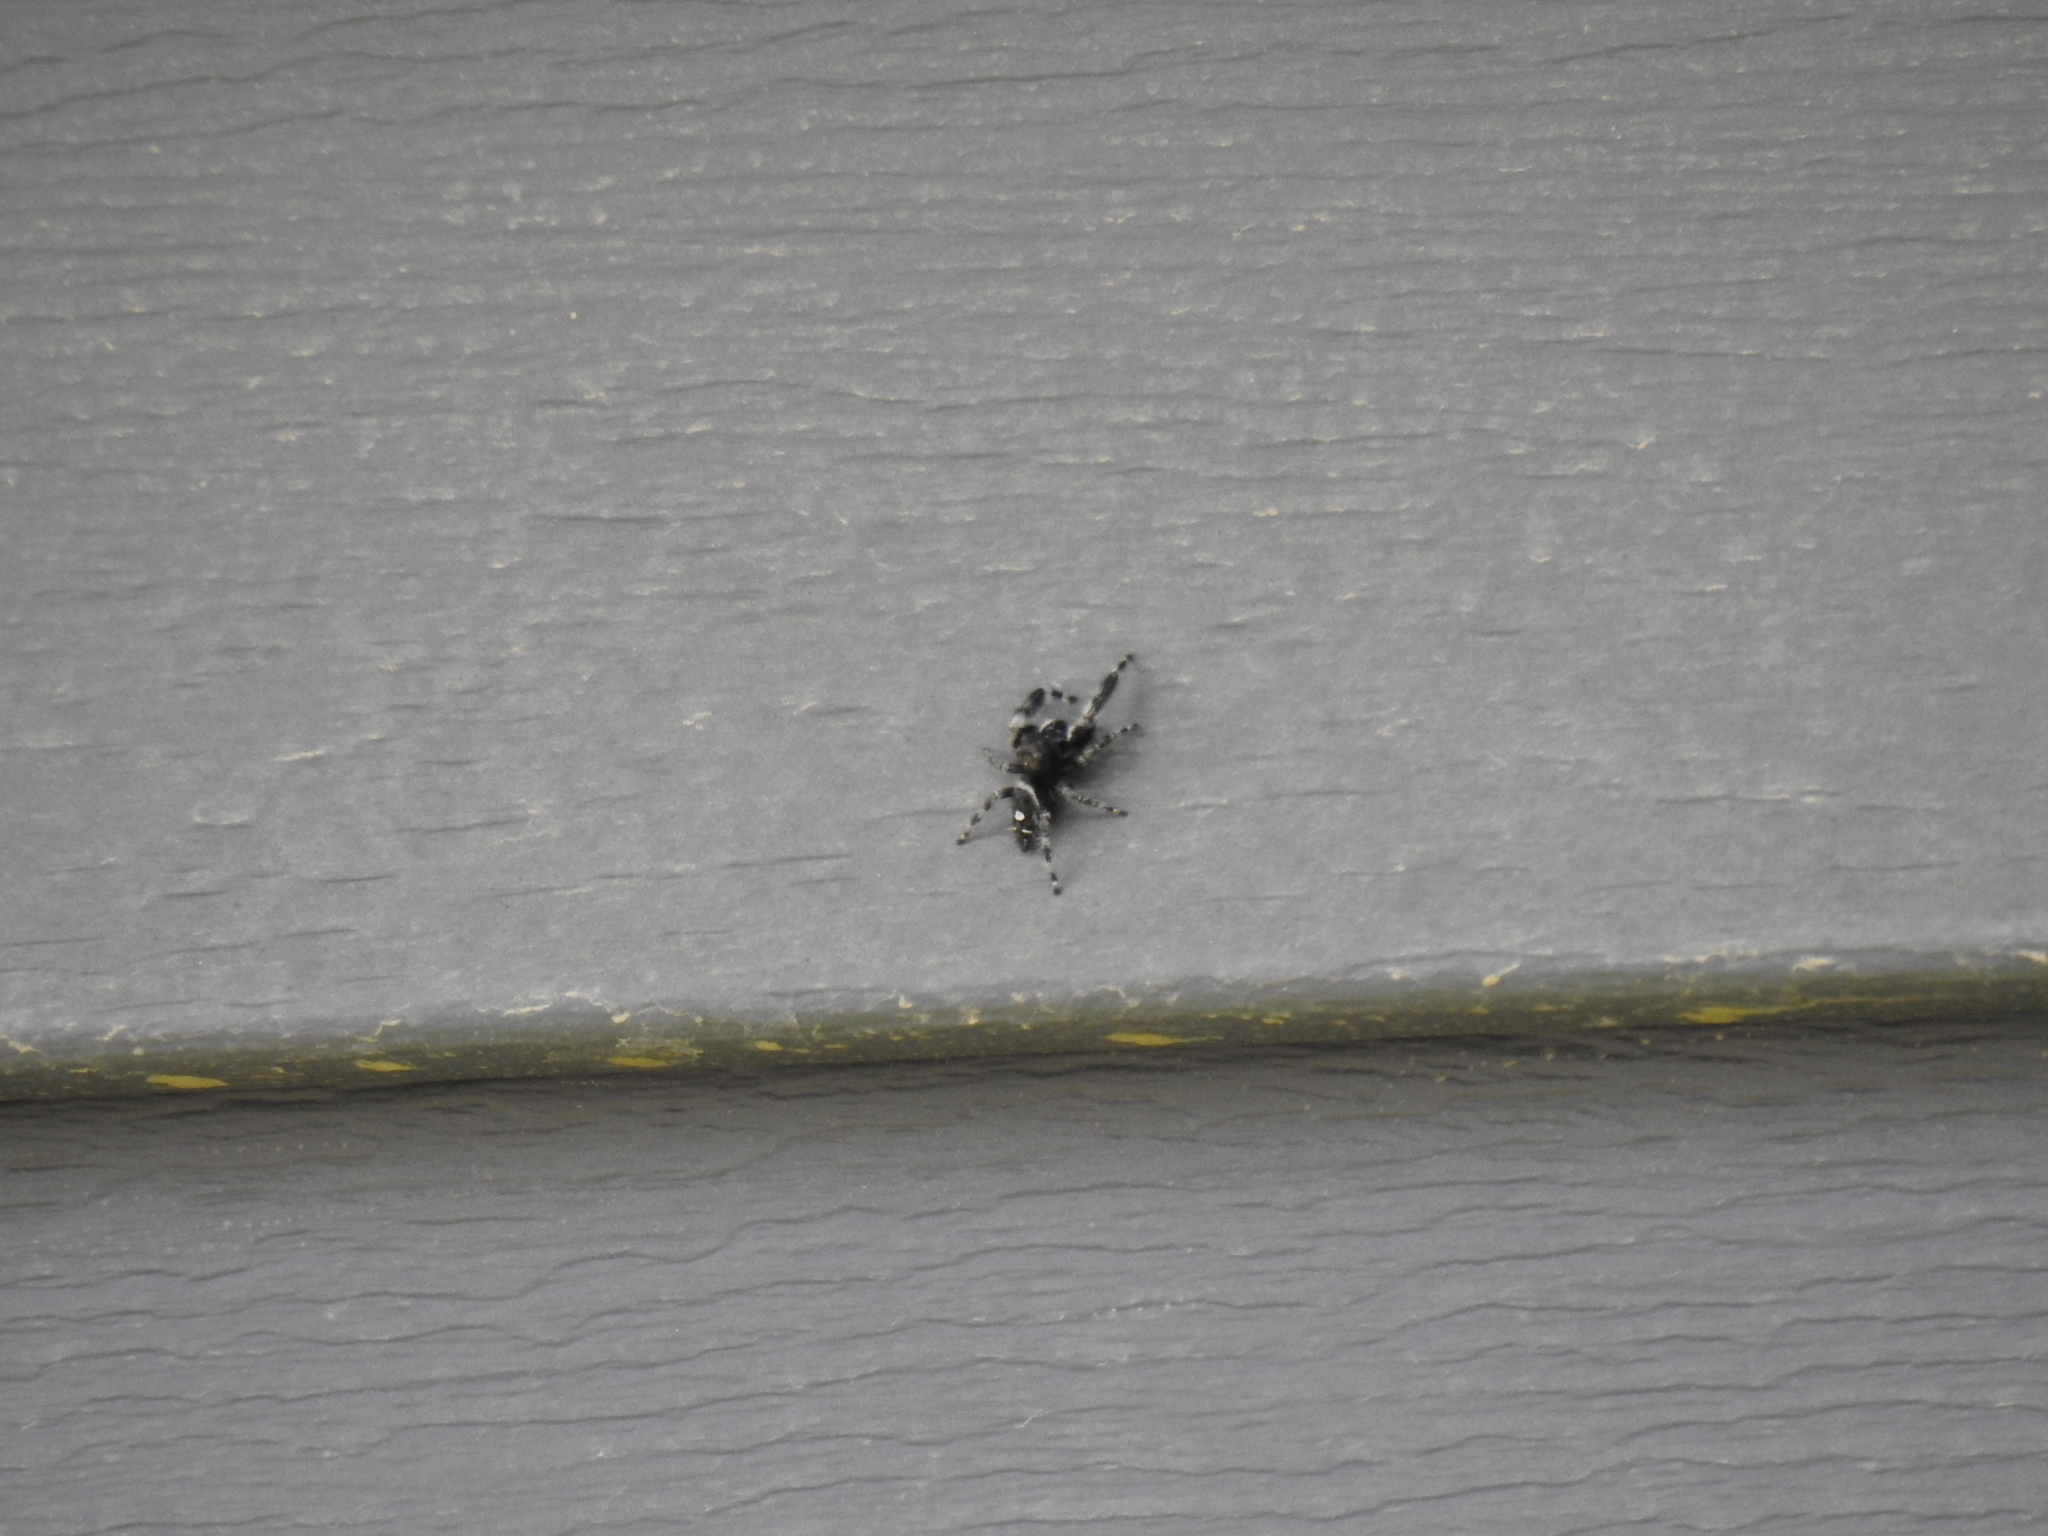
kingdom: Animalia
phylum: Arthropoda
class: Arachnida
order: Araneae
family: Salticidae
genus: Phidippus
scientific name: Phidippus audax
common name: Bold jumper
